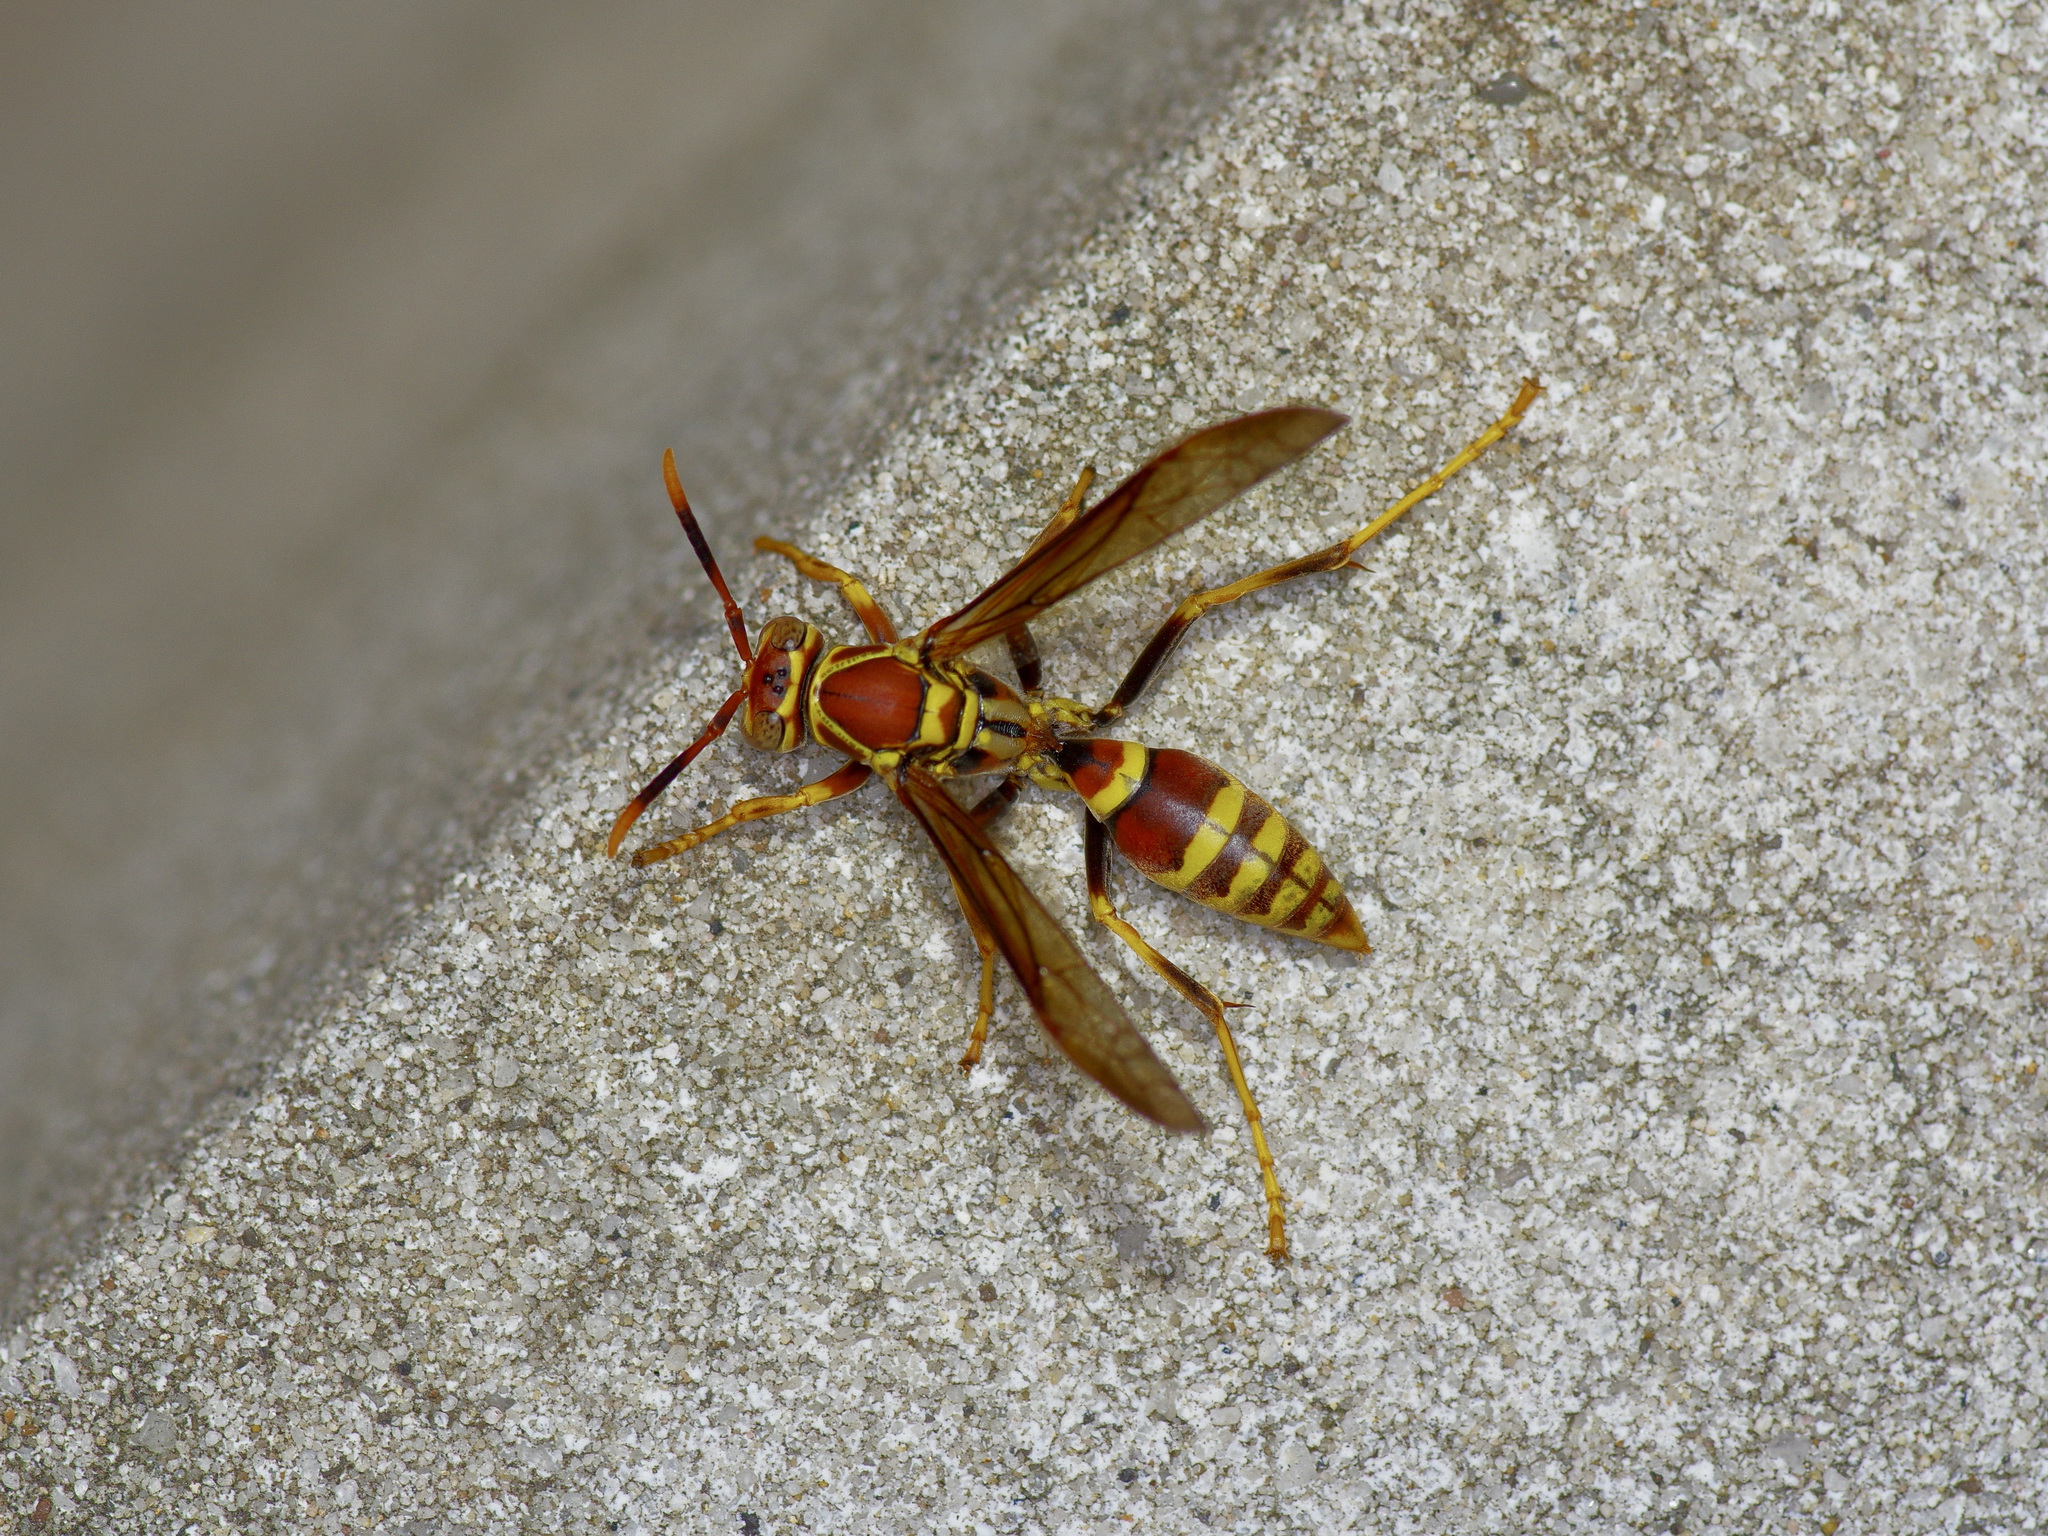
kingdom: Animalia
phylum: Arthropoda
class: Insecta
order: Hymenoptera
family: Eumenidae
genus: Polistes
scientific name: Polistes exclamans
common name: Paper wasp
